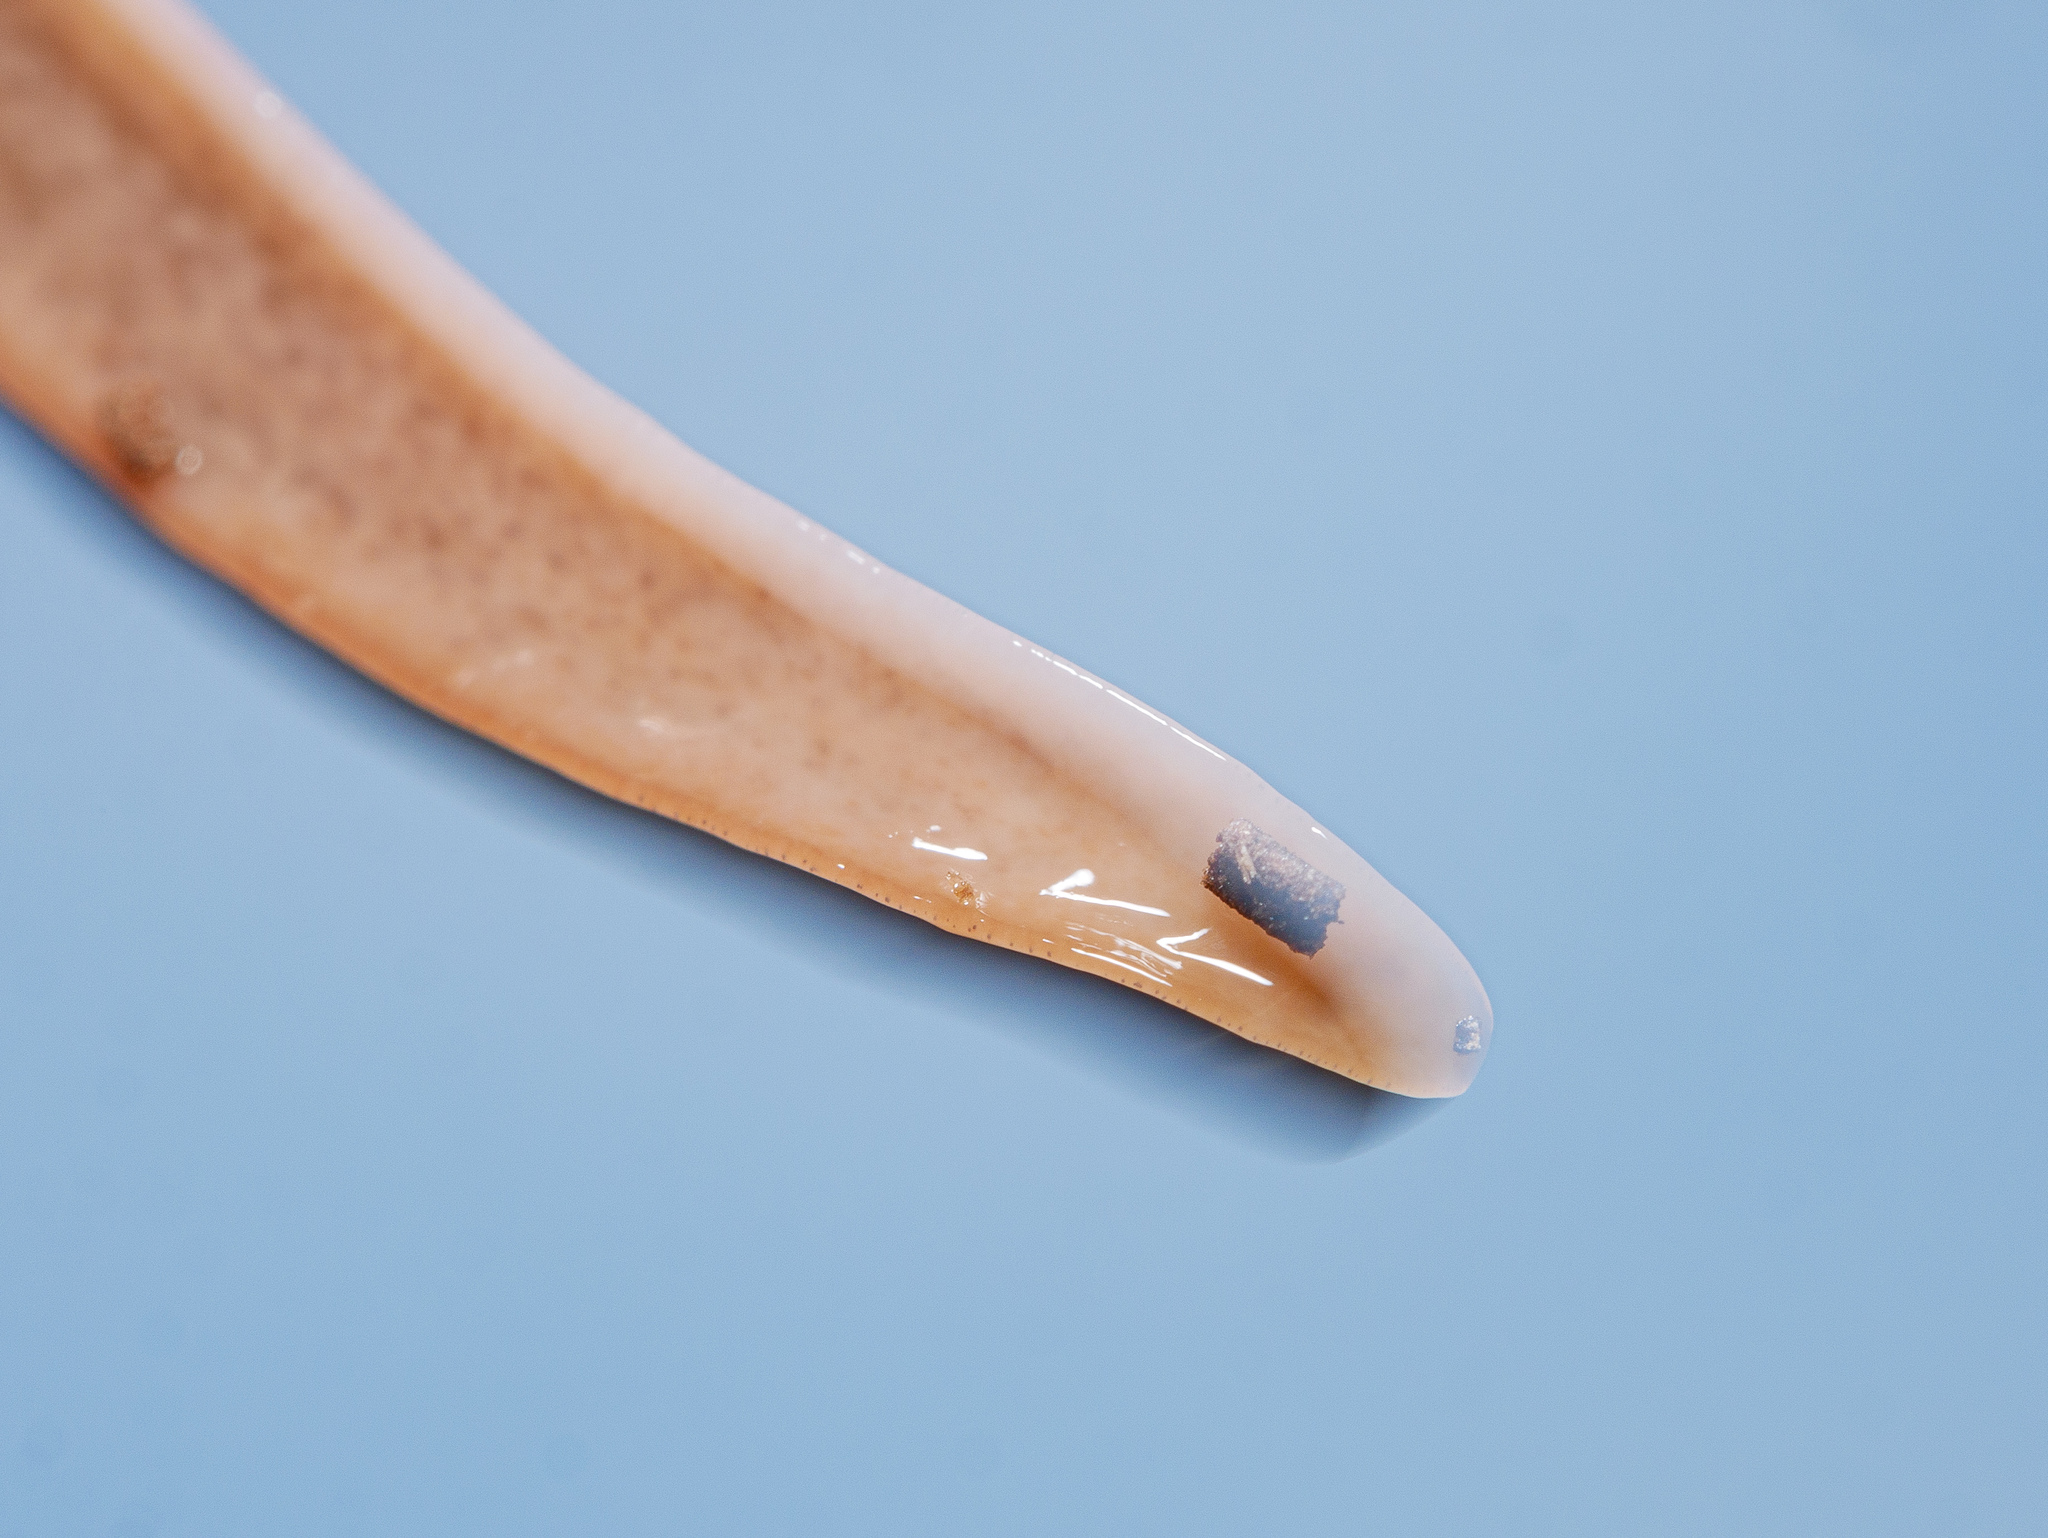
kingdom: Animalia
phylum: Platyhelminthes
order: Tricladida
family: Geoplanidae
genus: Newzealandia
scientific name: Newzealandia graffii
